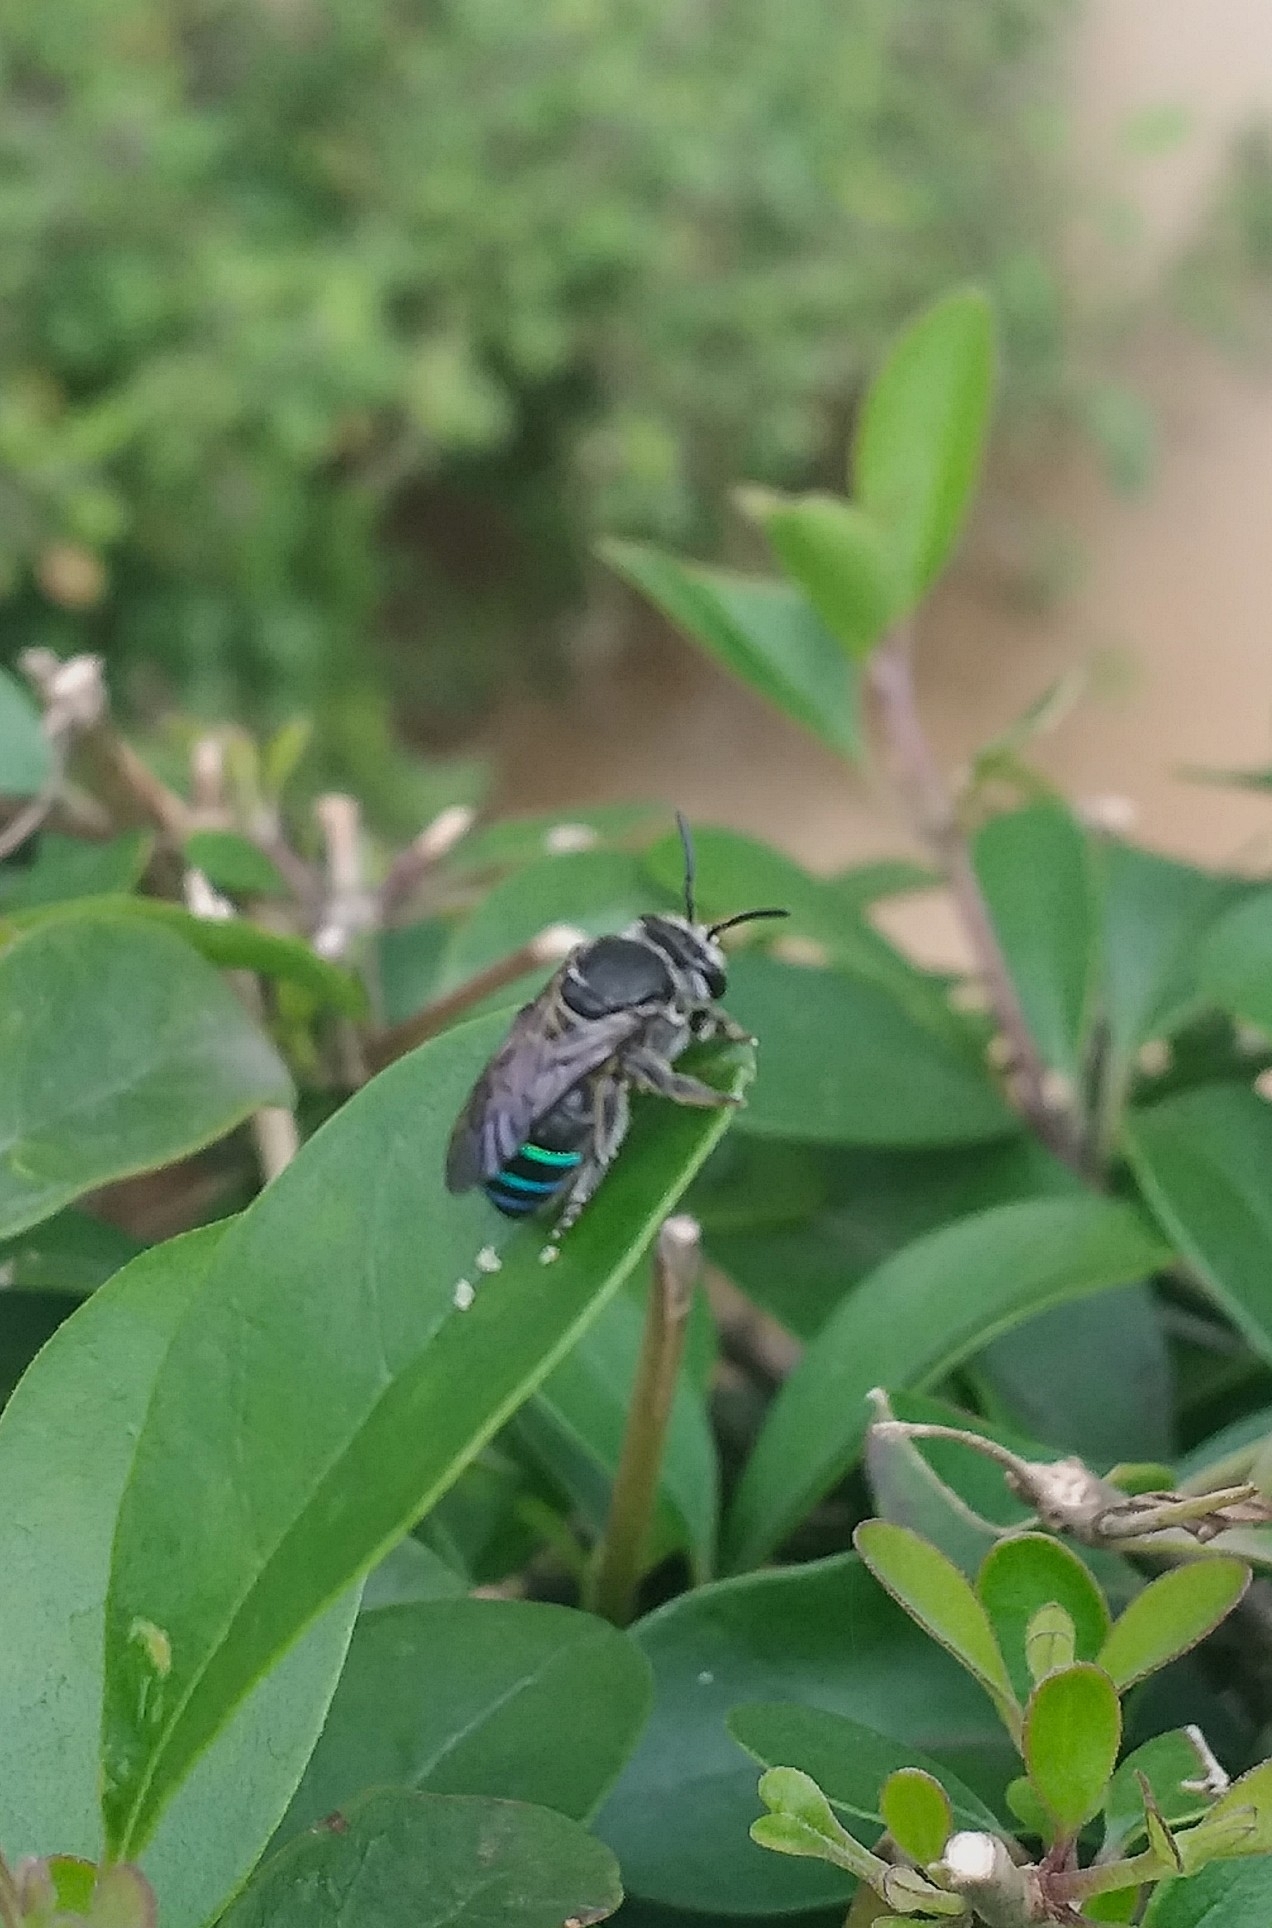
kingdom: Animalia
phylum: Arthropoda
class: Insecta
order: Hymenoptera
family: Halictidae
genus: Nomia
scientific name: Nomia iridescens
